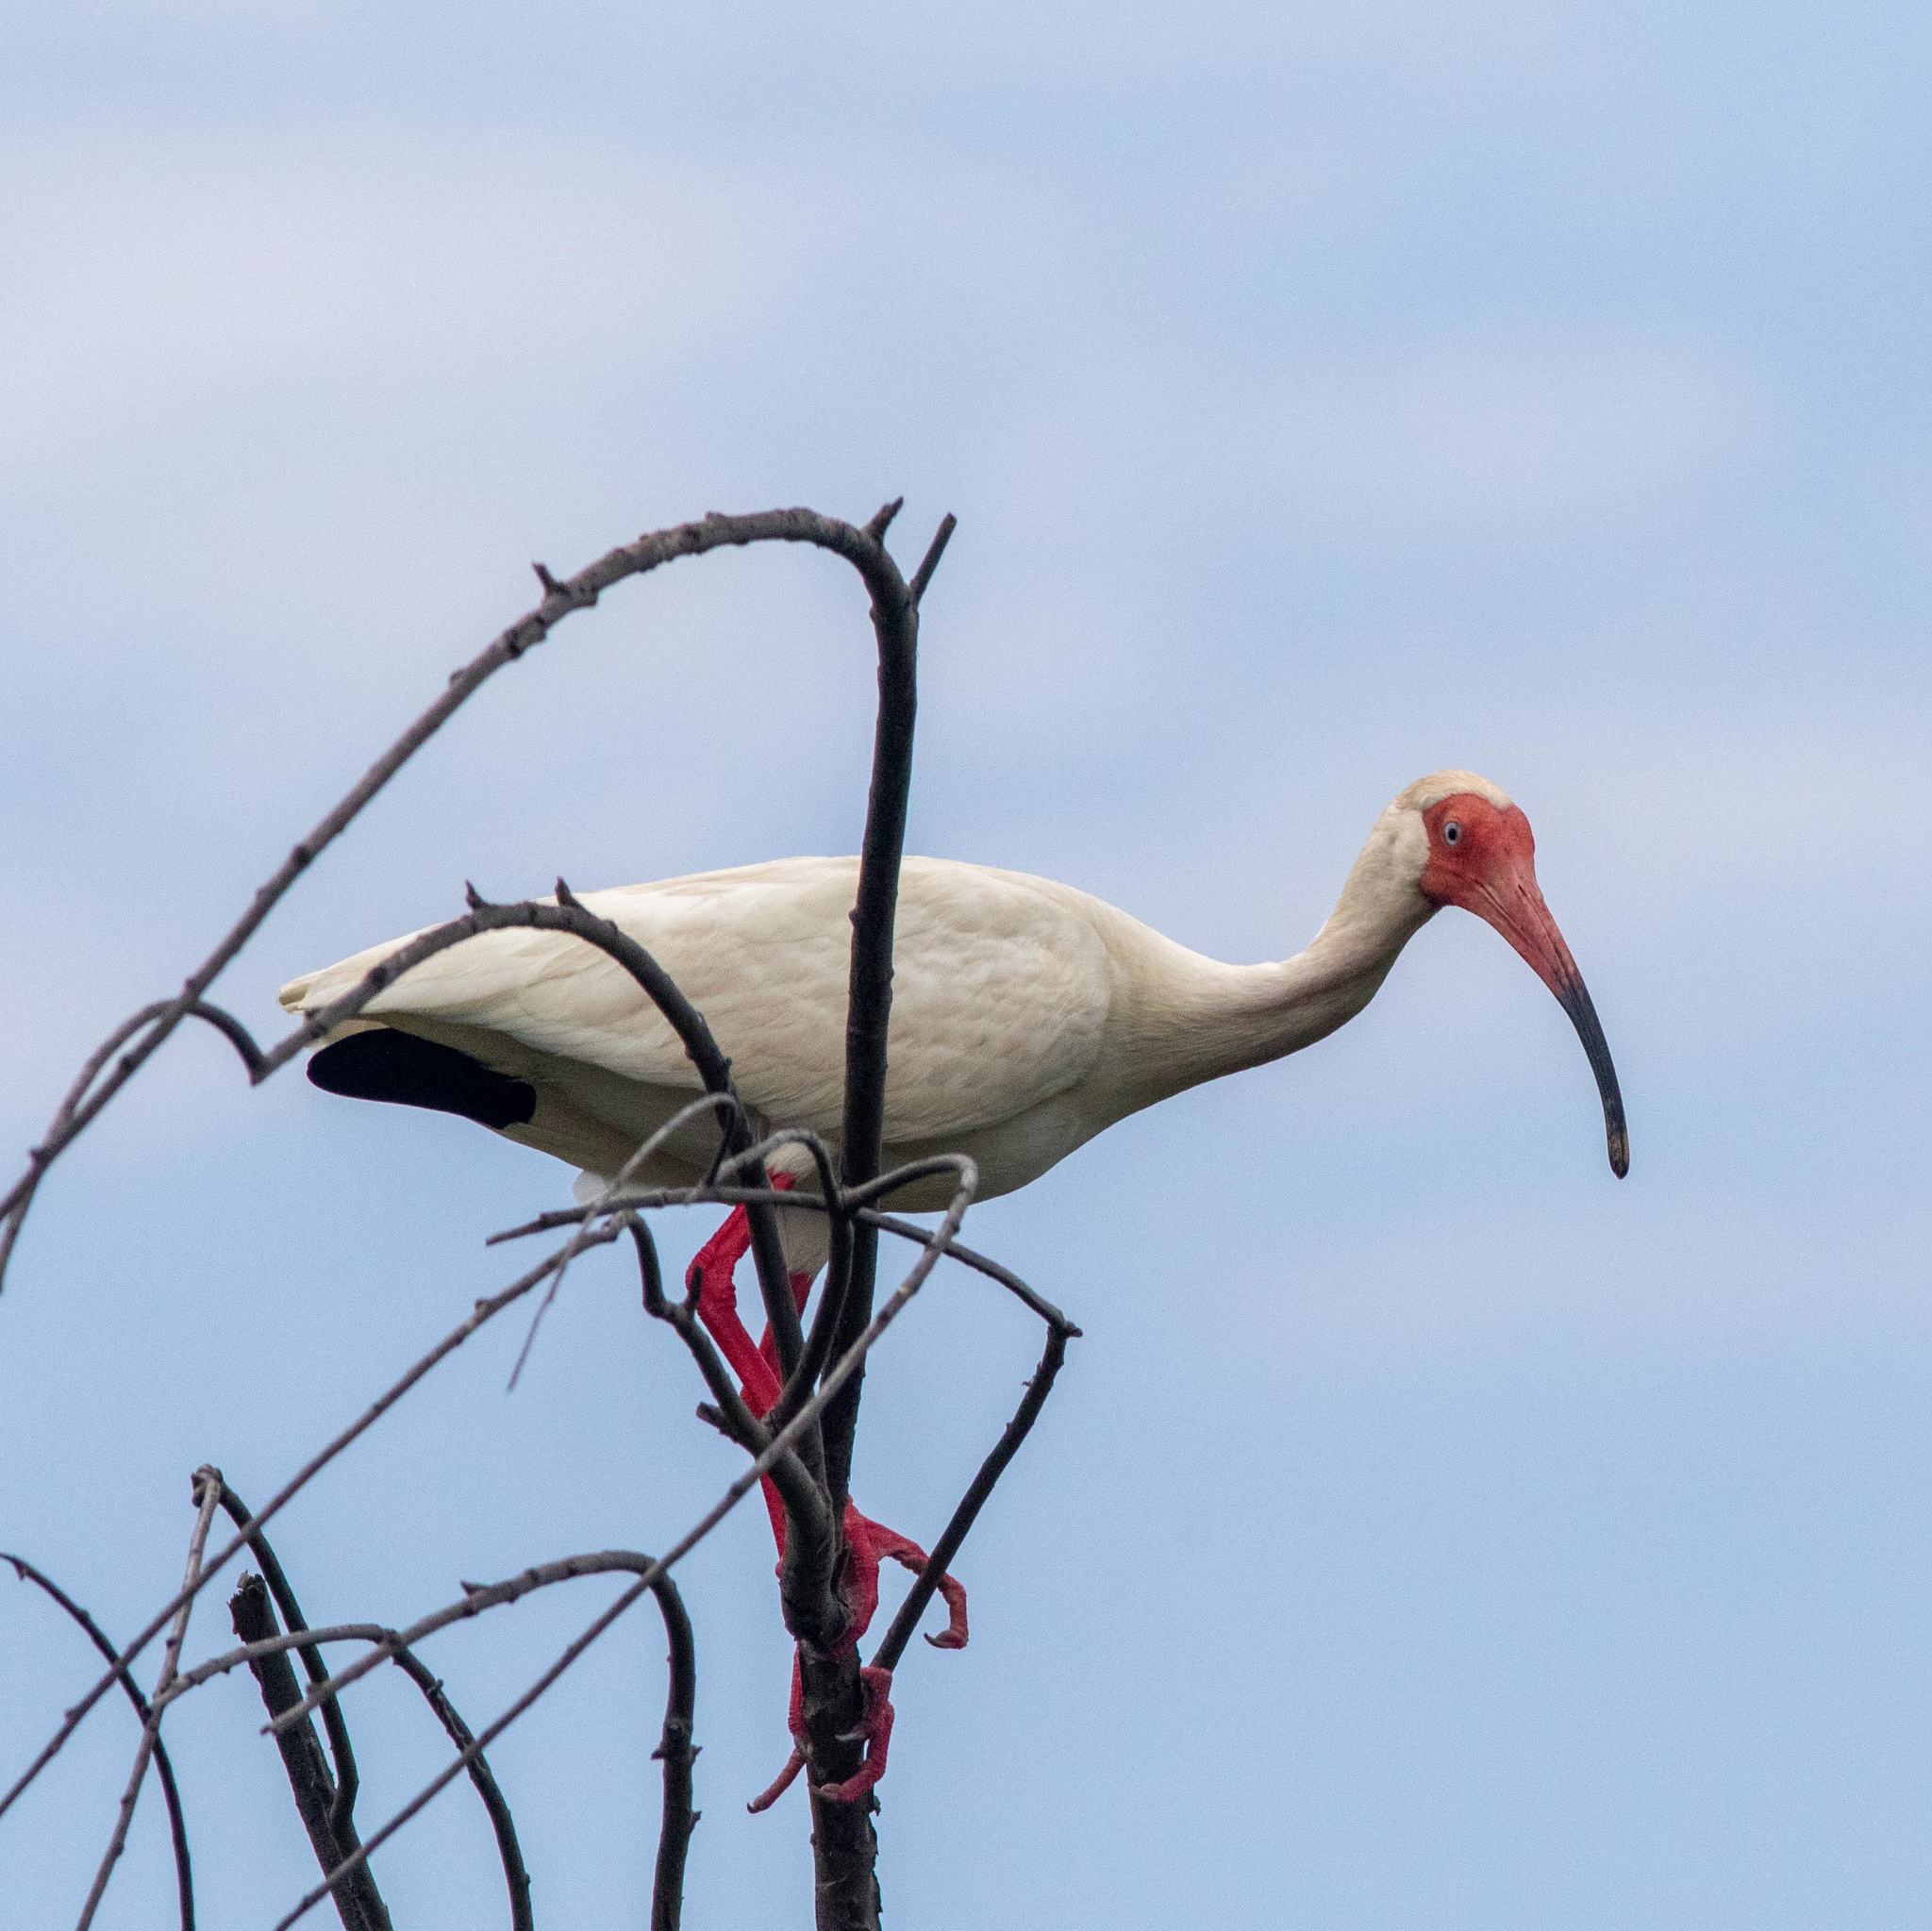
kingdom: Animalia
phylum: Chordata
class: Aves
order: Pelecaniformes
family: Threskiornithidae
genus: Eudocimus
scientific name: Eudocimus albus
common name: White ibis
